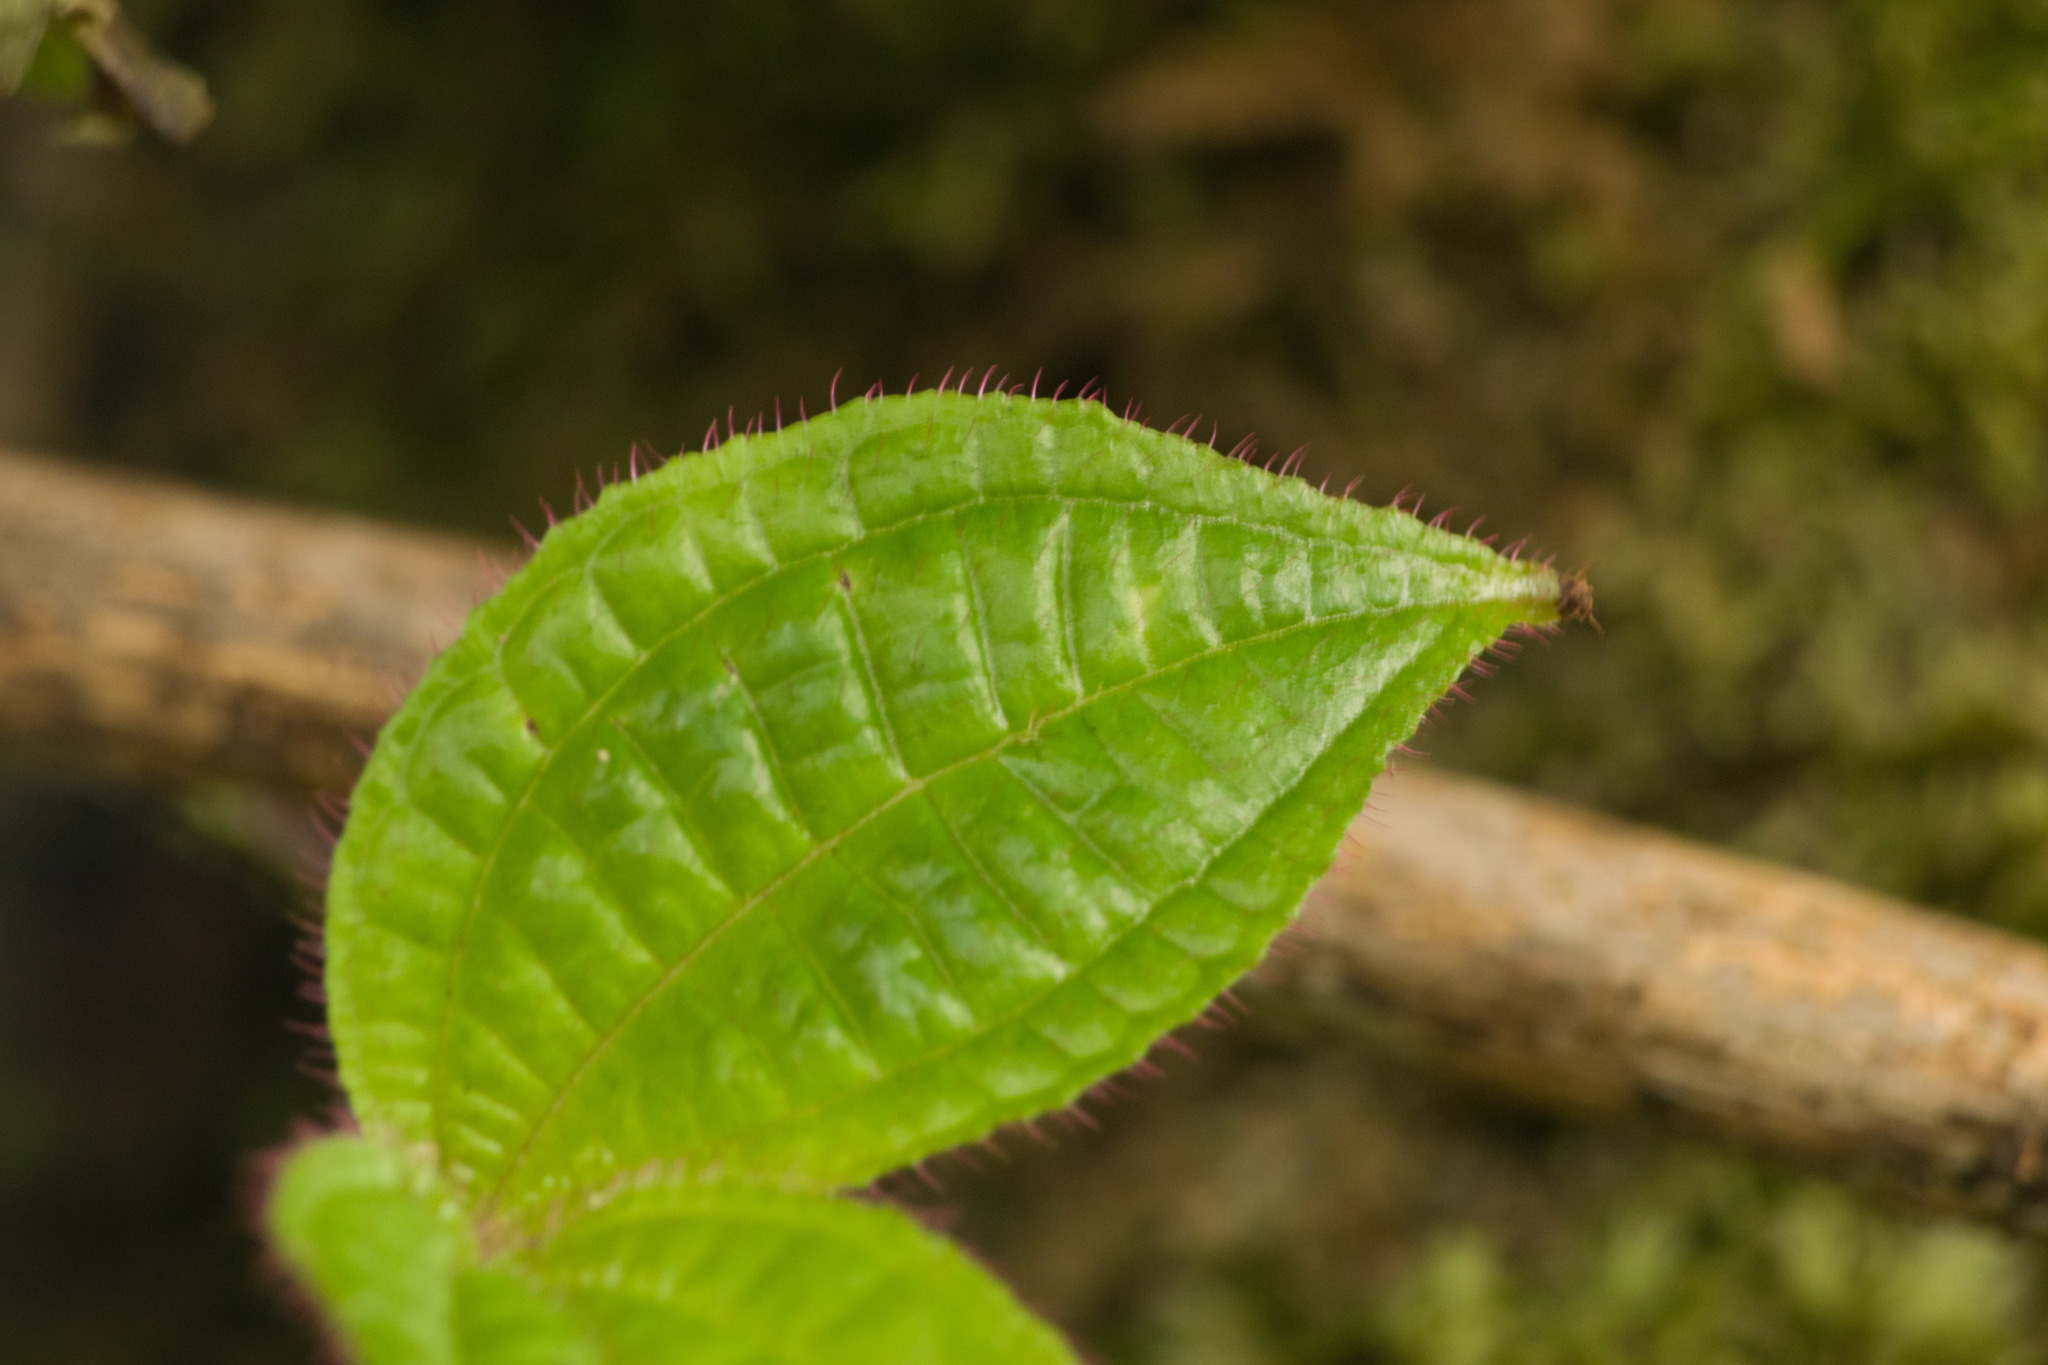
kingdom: Plantae
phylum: Tracheophyta
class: Magnoliopsida
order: Myrtales
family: Melastomataceae
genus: Miconia
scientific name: Miconia crenata
